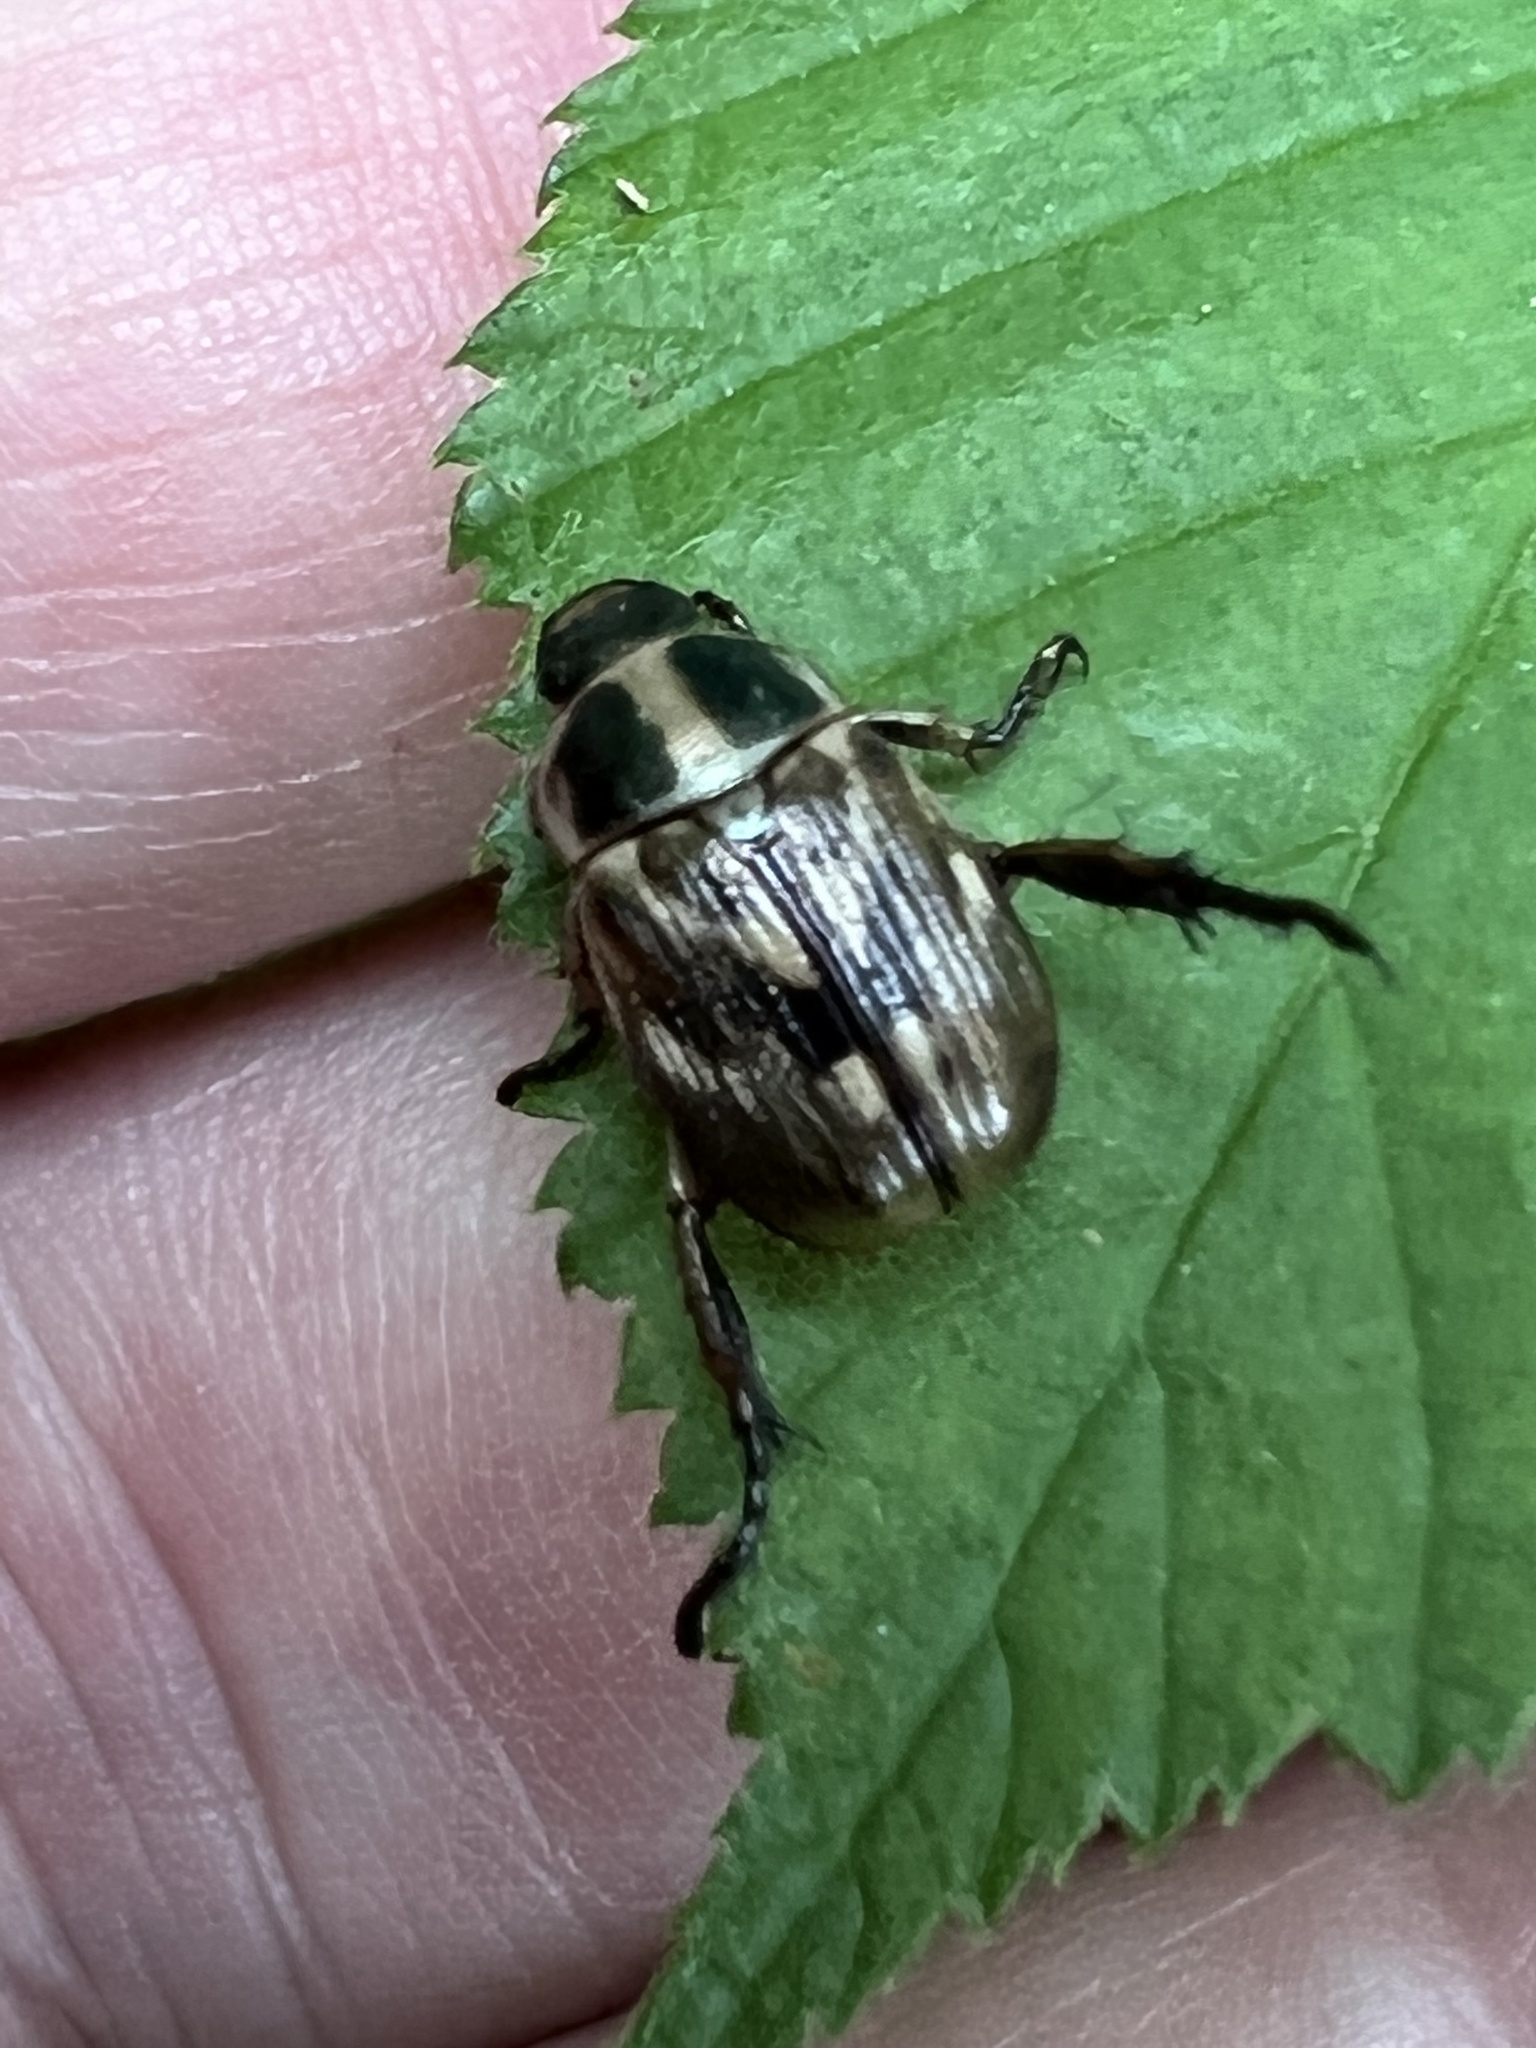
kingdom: Animalia
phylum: Arthropoda
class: Insecta
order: Coleoptera
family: Scarabaeidae
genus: Exomala
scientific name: Exomala orientalis
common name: Oriental beetle
